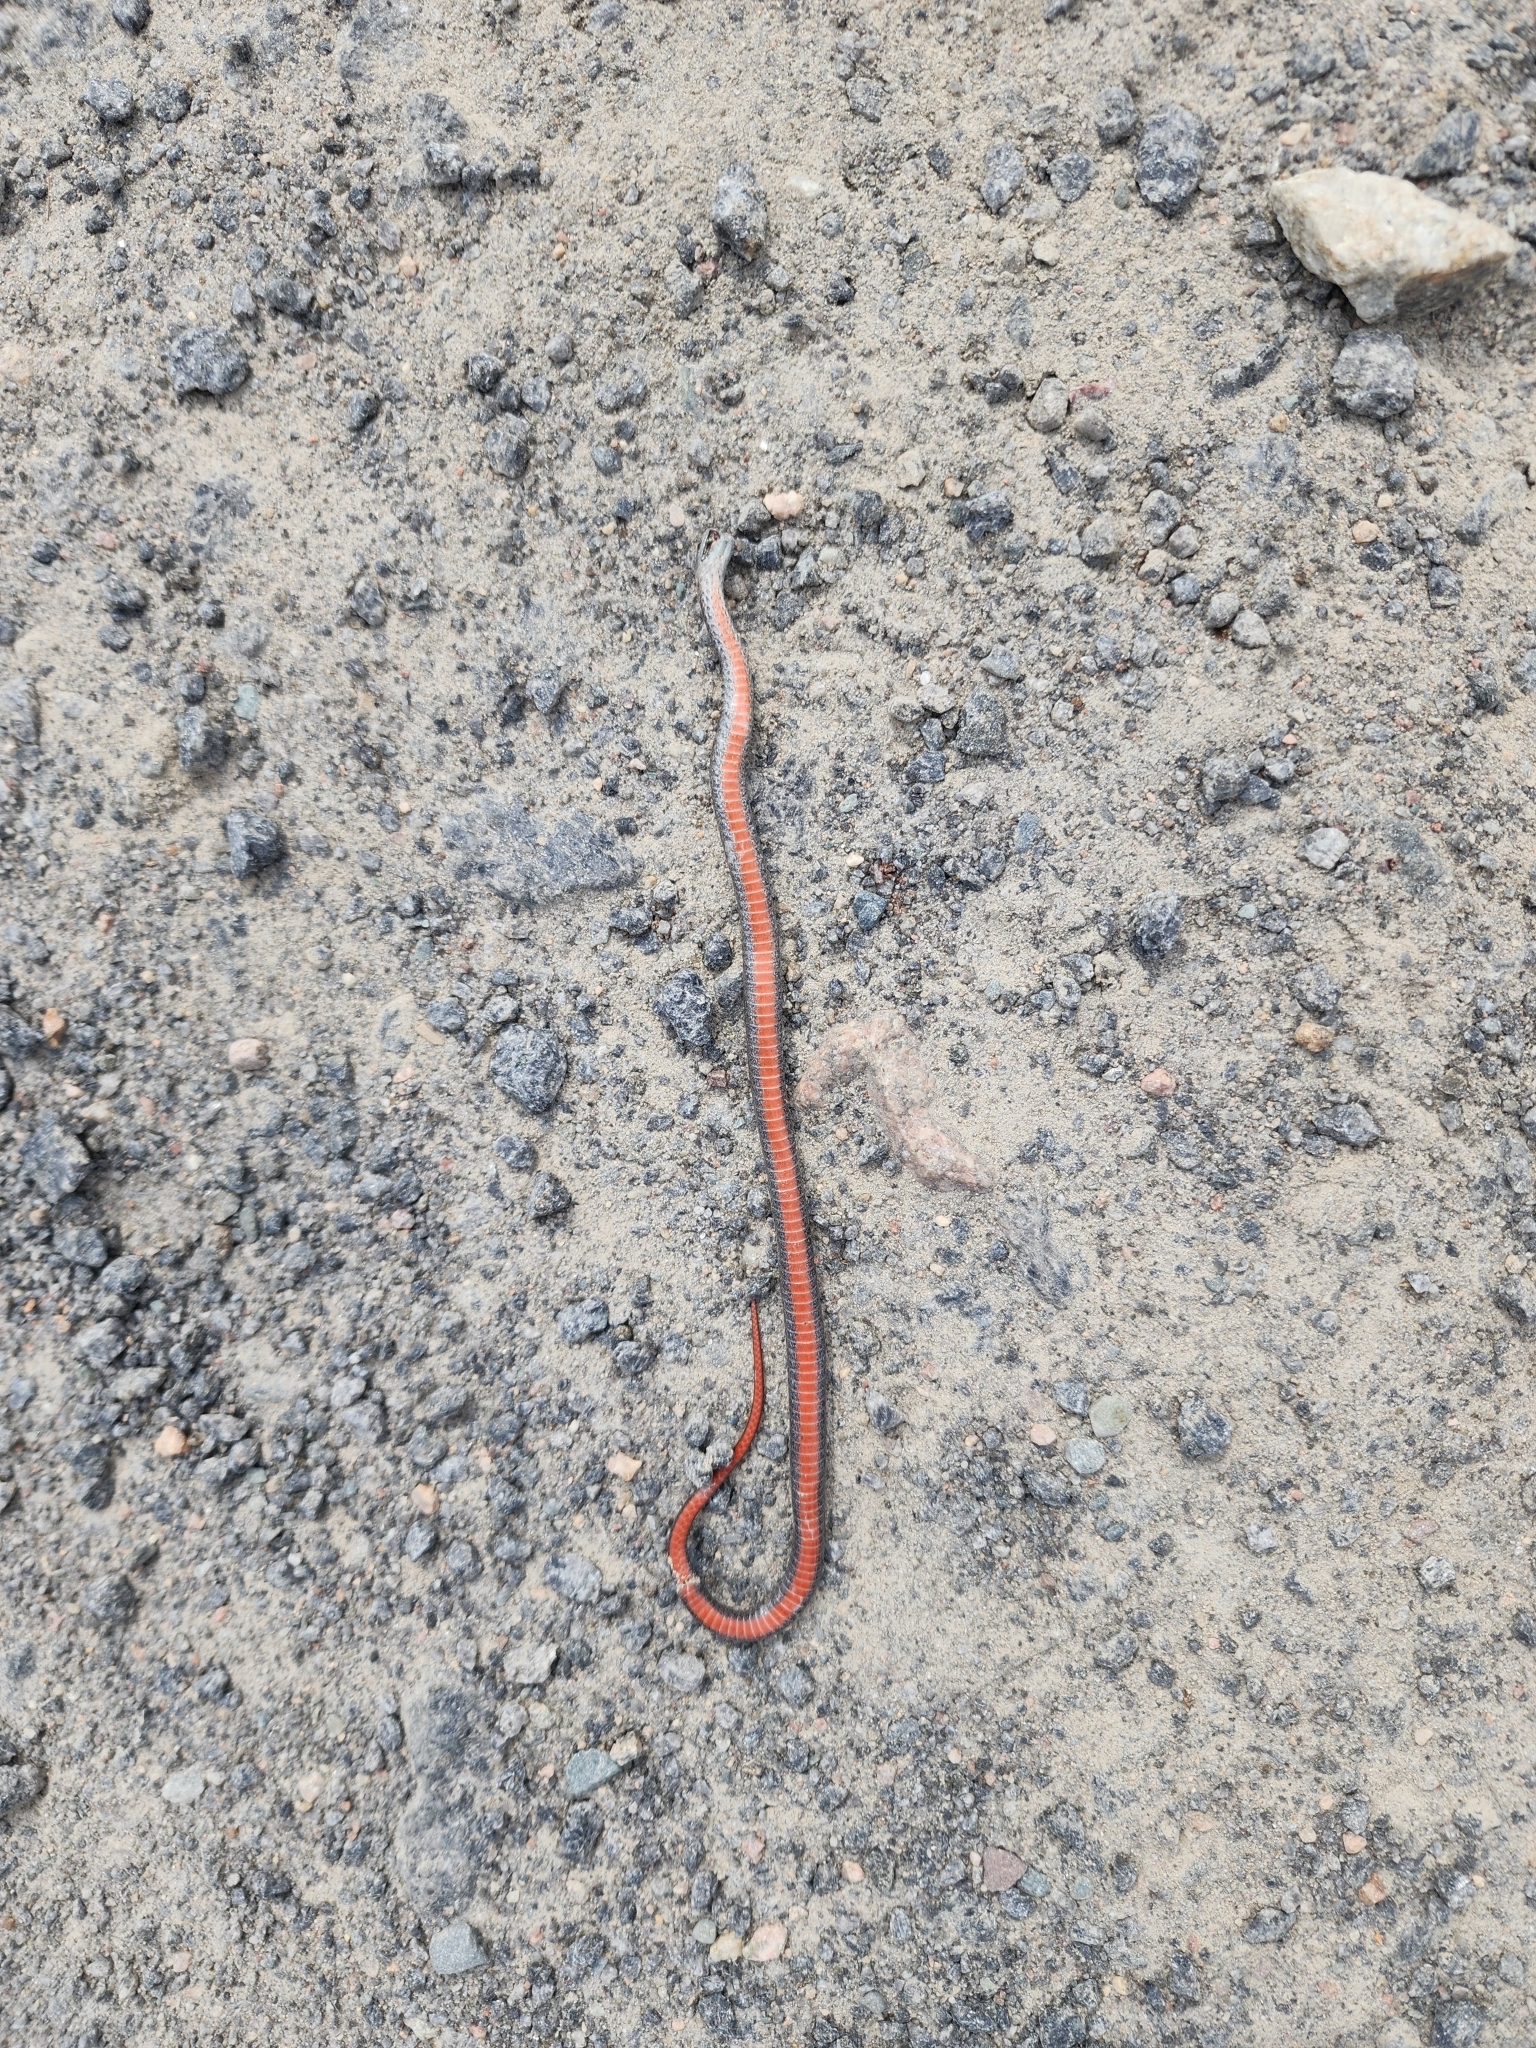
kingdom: Animalia
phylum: Chordata
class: Squamata
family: Colubridae
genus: Storeria
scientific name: Storeria occipitomaculata
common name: Redbelly snake
